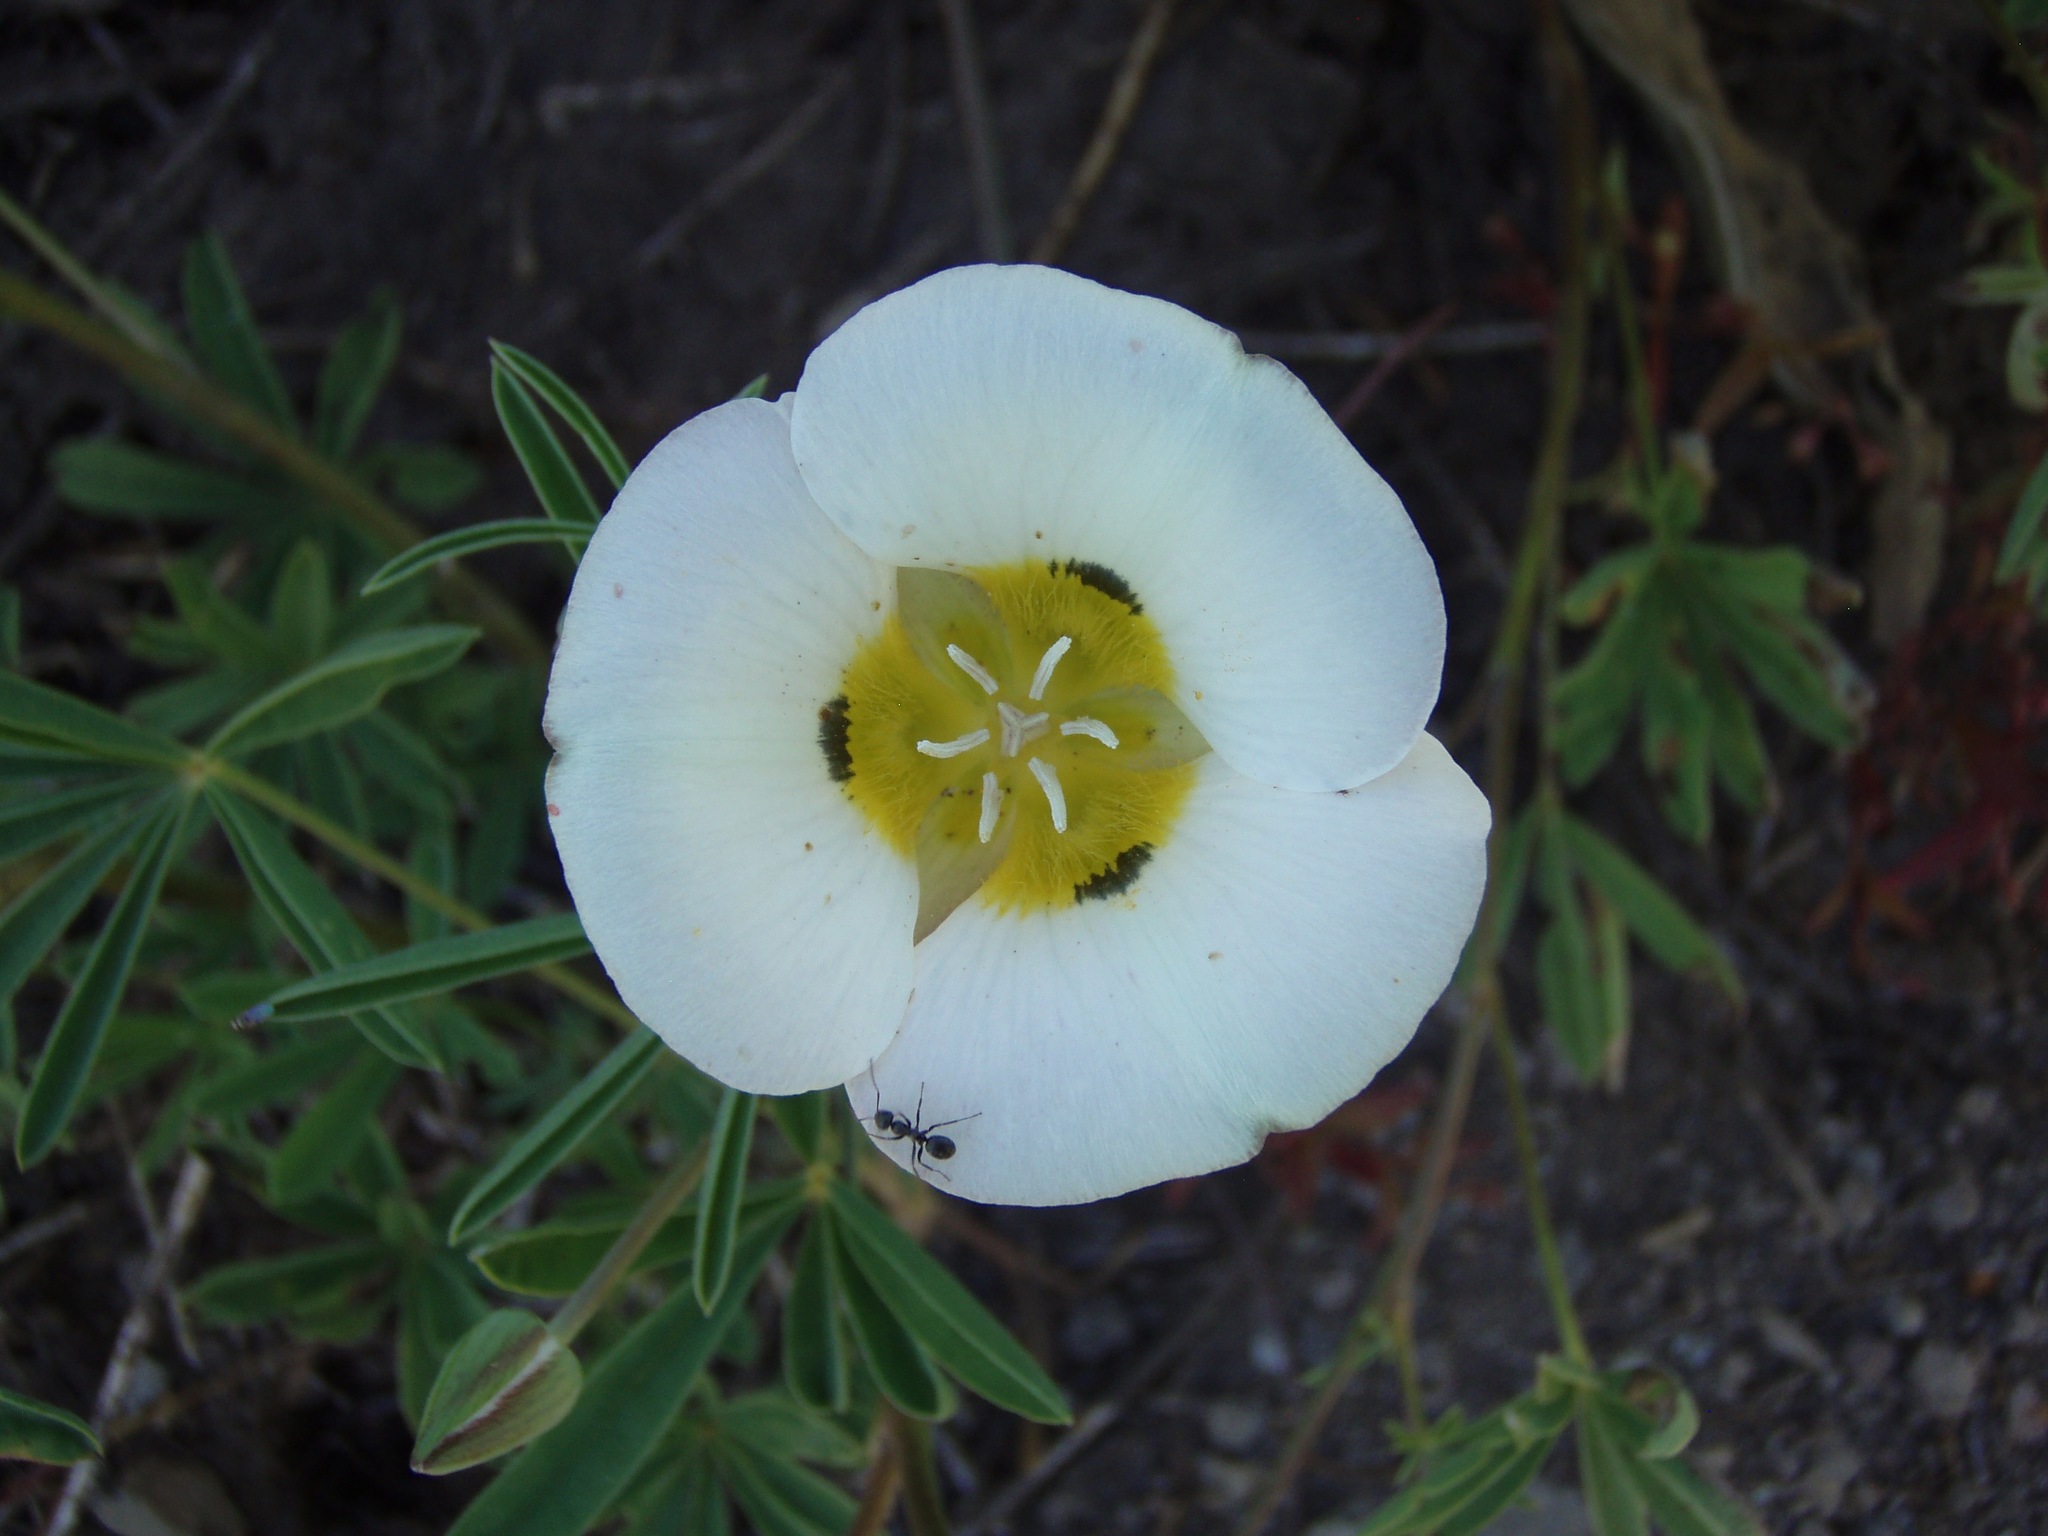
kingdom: Plantae
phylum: Tracheophyta
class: Liliopsida
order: Liliales
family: Liliaceae
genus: Calochortus
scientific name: Calochortus leichtlinii
